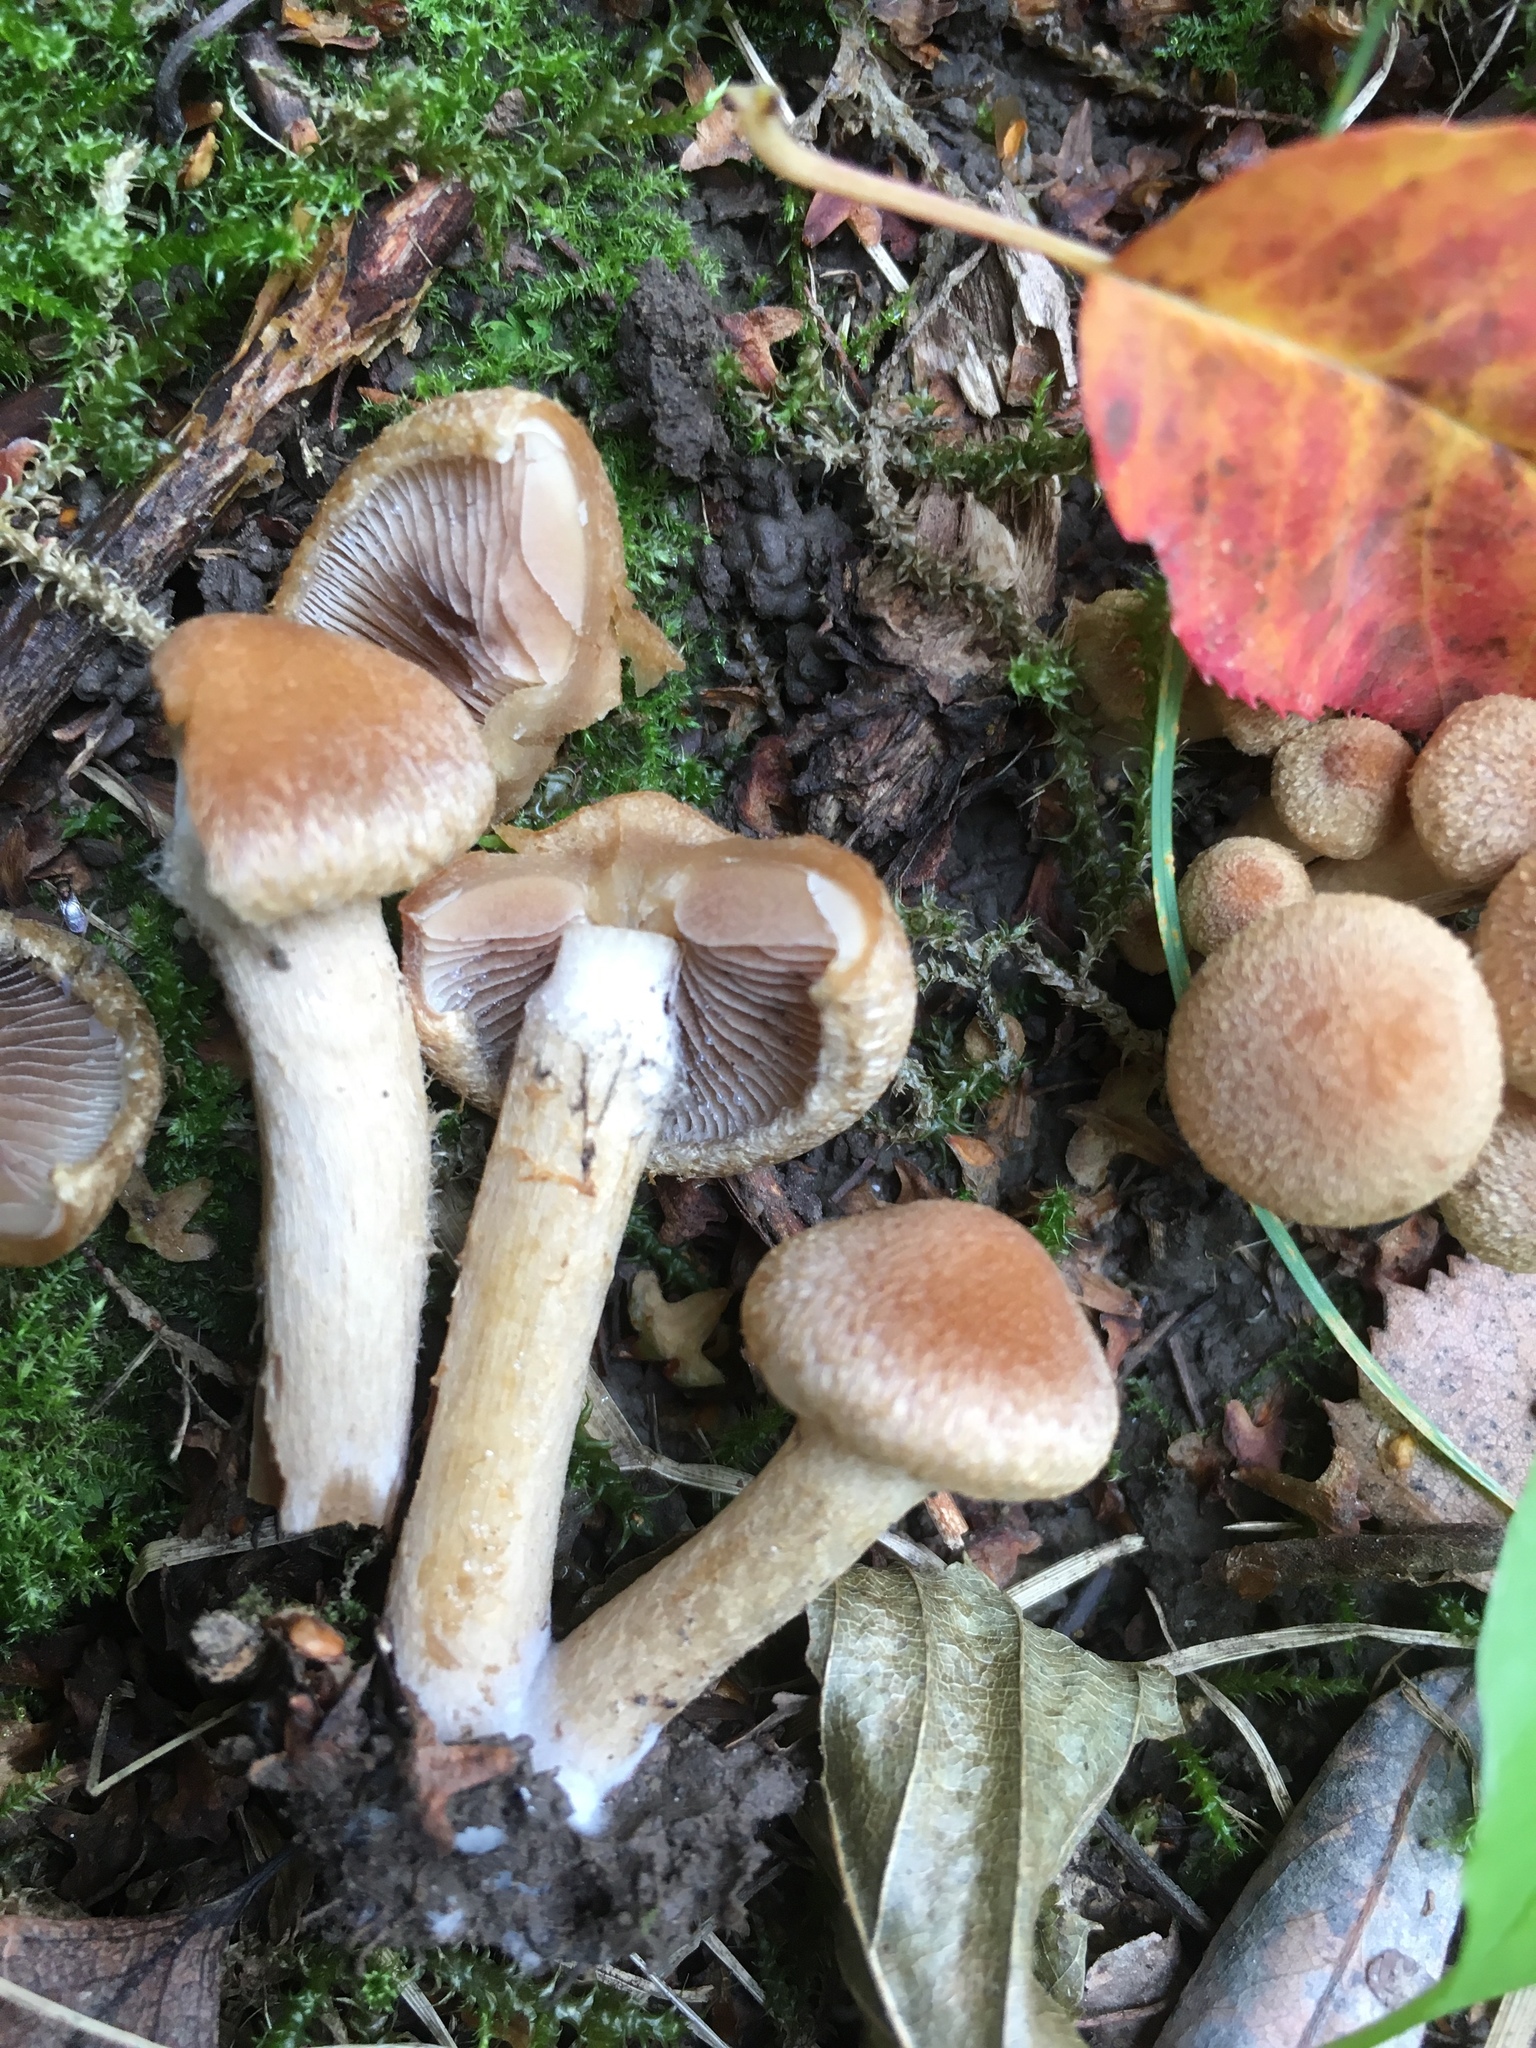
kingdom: Fungi
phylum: Basidiomycota
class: Agaricomycetes
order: Agaricales
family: Psathyrellaceae
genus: Lacrymaria
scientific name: Lacrymaria lacrymabunda
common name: Weeping widow
